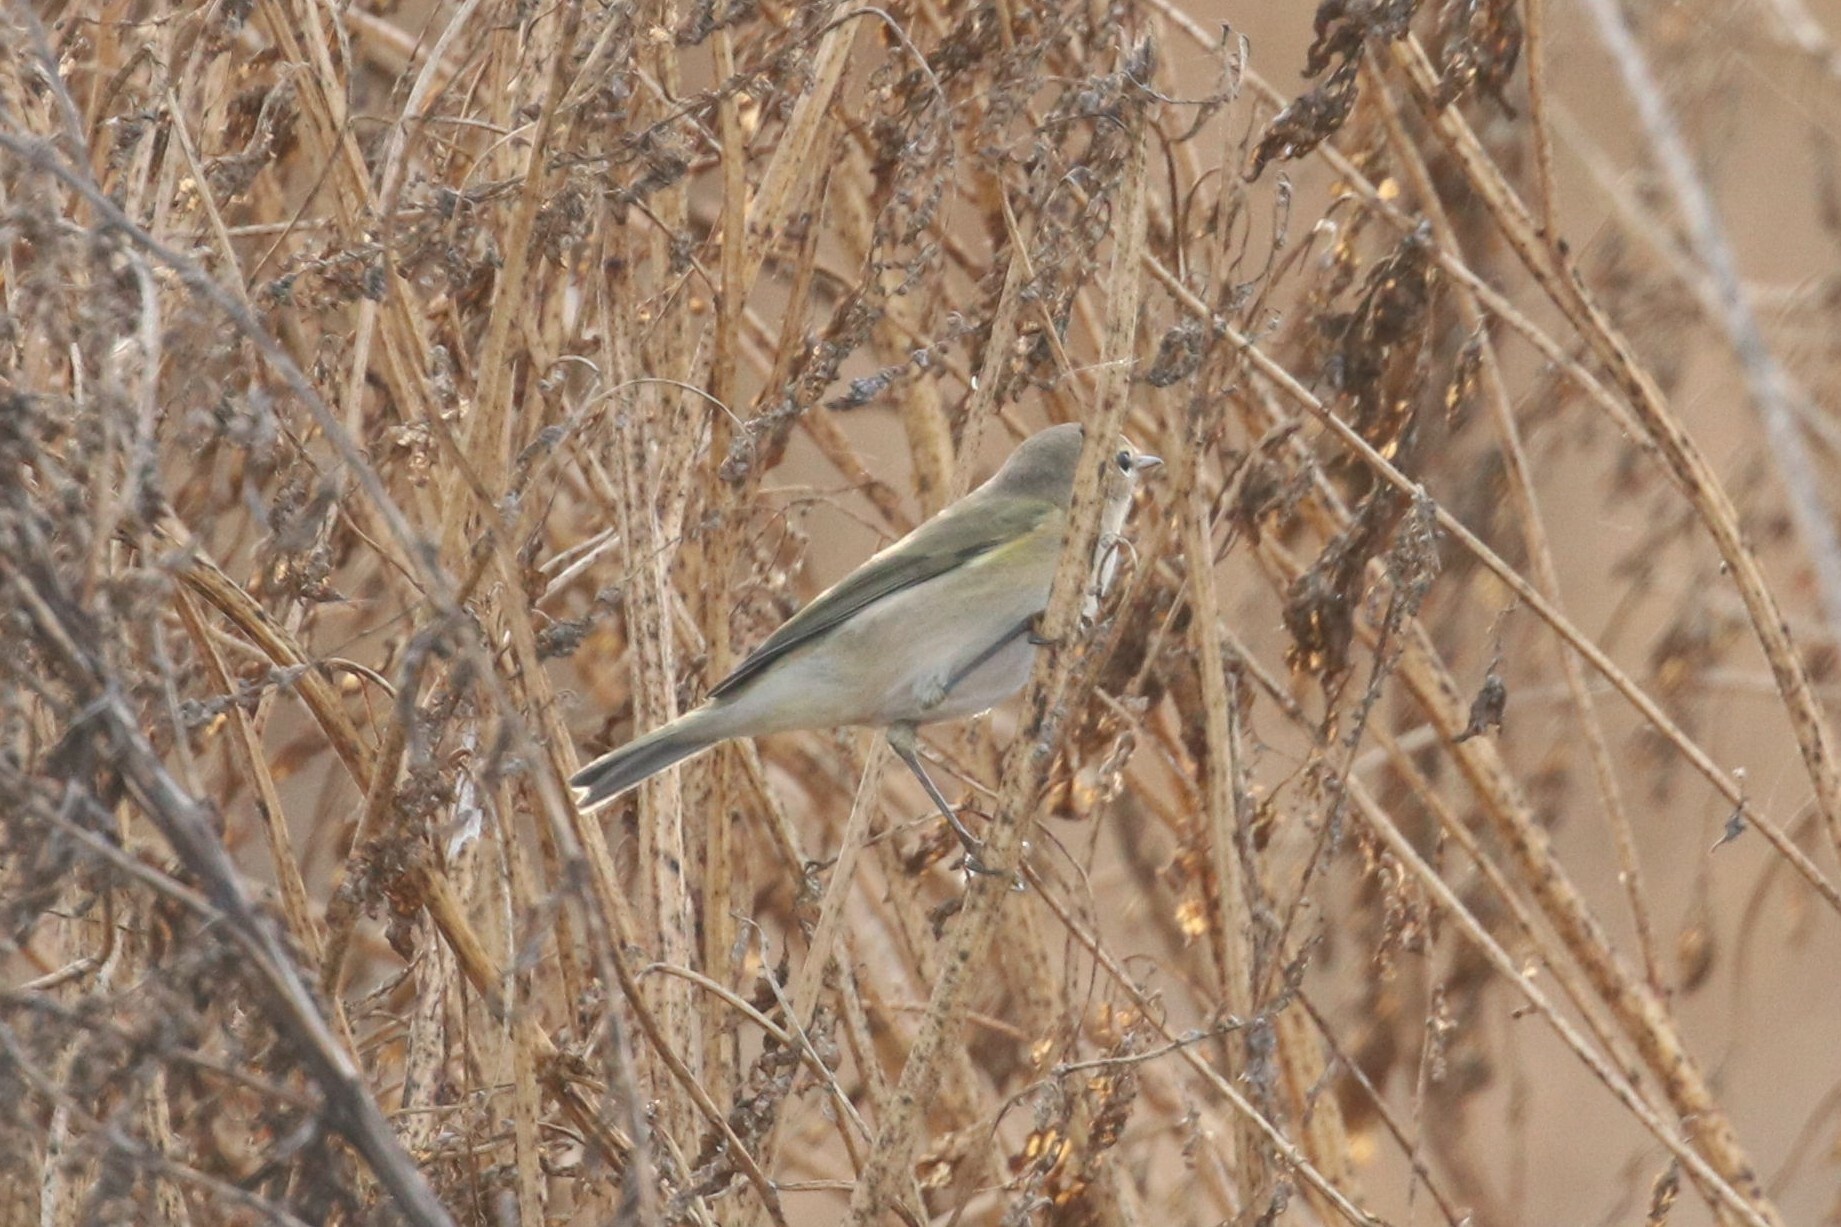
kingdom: Animalia
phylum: Chordata
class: Aves
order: Passeriformes
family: Phylloscopidae
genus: Phylloscopus
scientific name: Phylloscopus collybita
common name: Common chiffchaff
